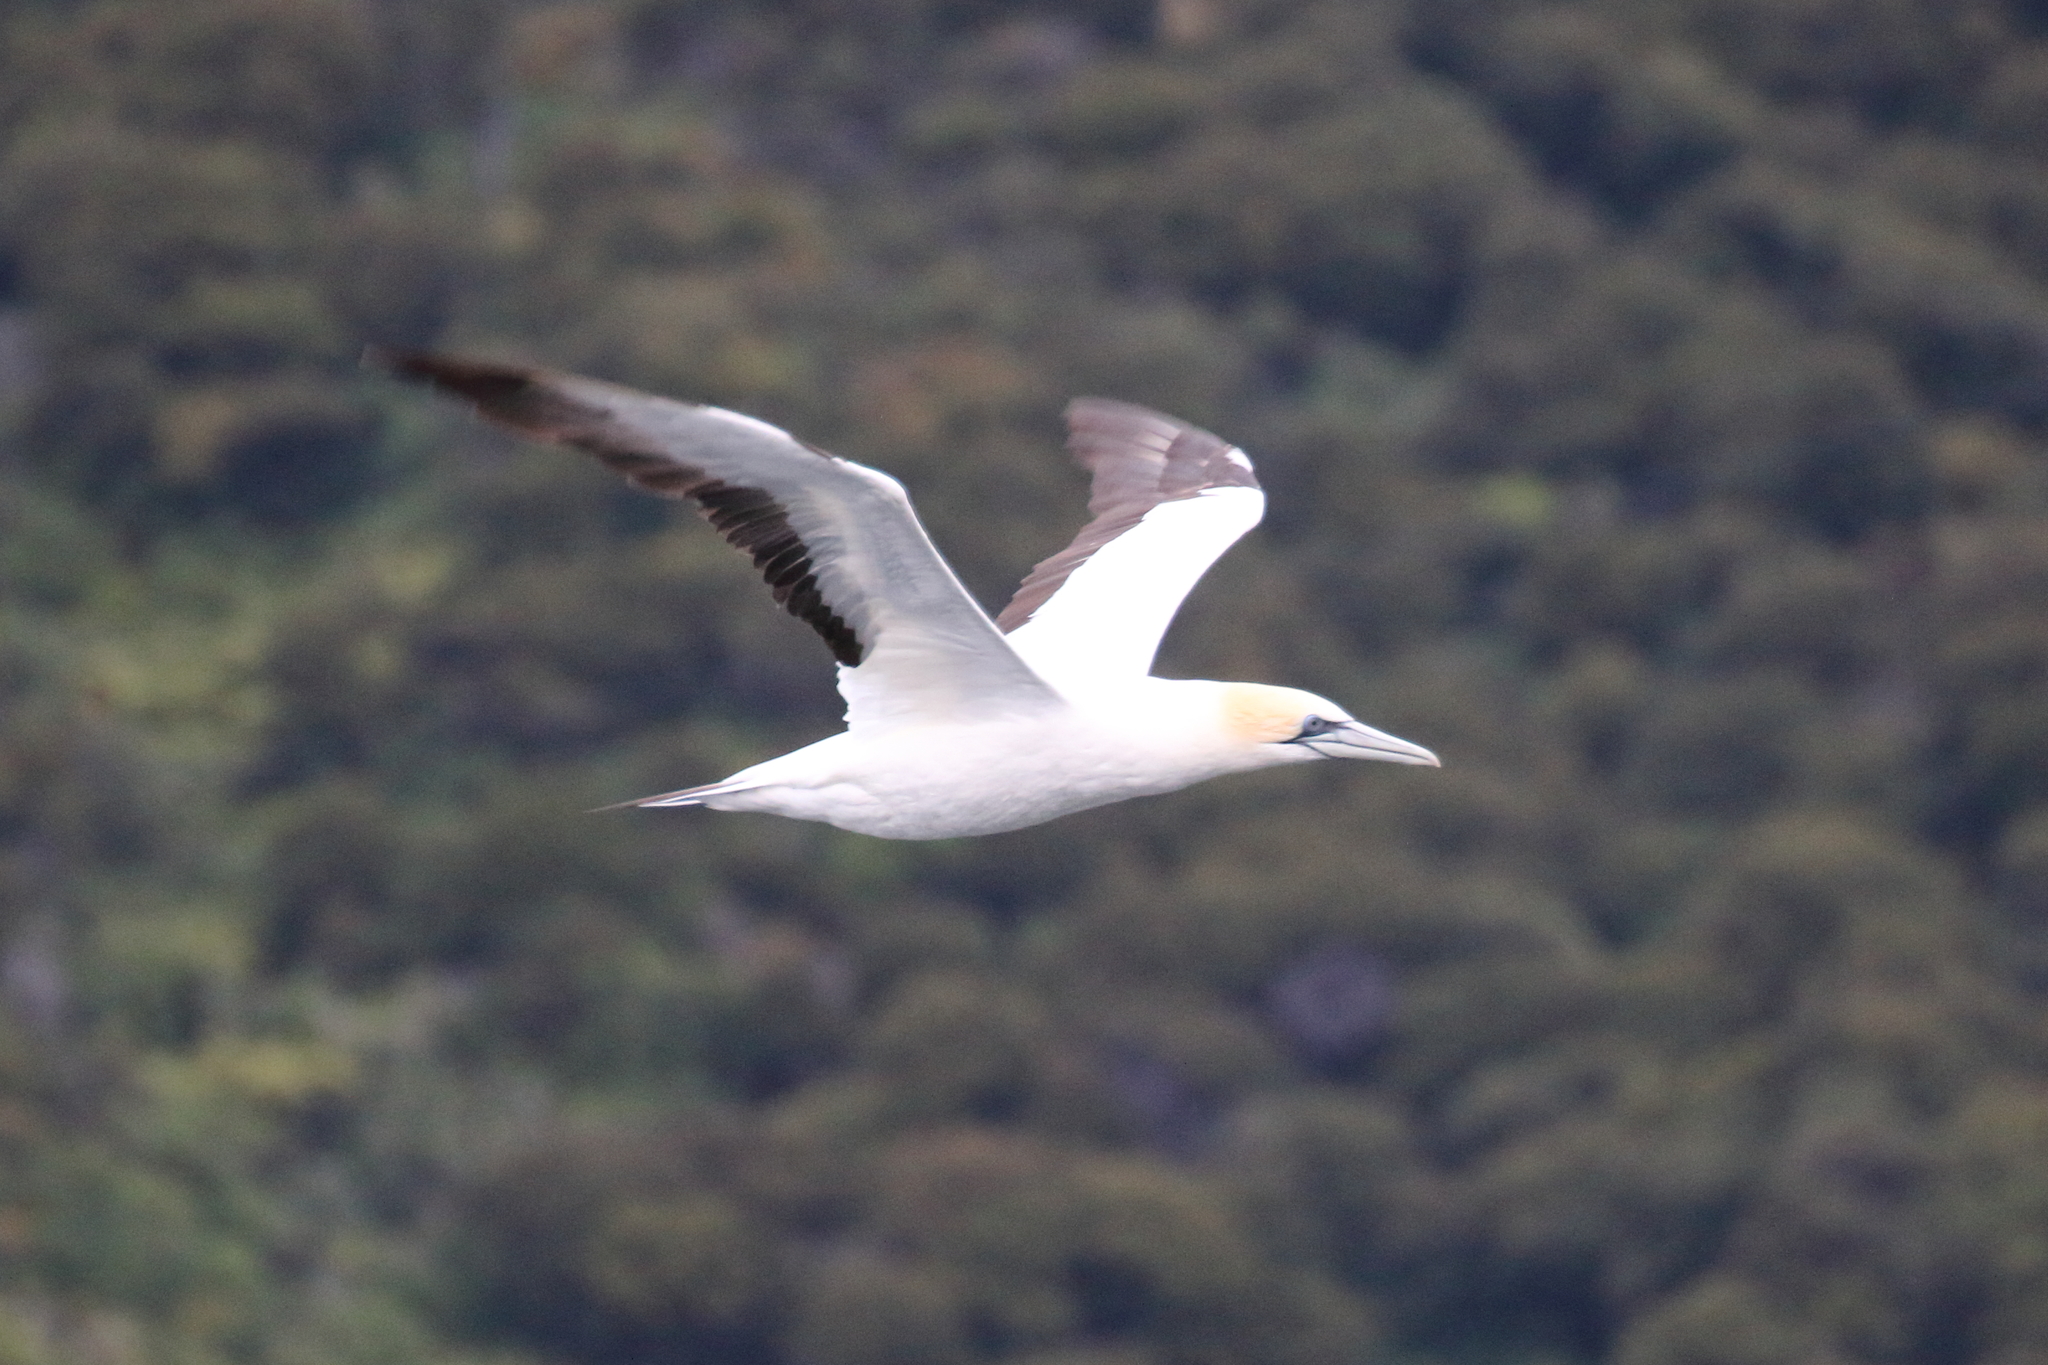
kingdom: Animalia
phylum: Chordata
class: Aves
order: Suliformes
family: Sulidae
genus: Morus
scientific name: Morus serrator
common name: Australasian gannet
